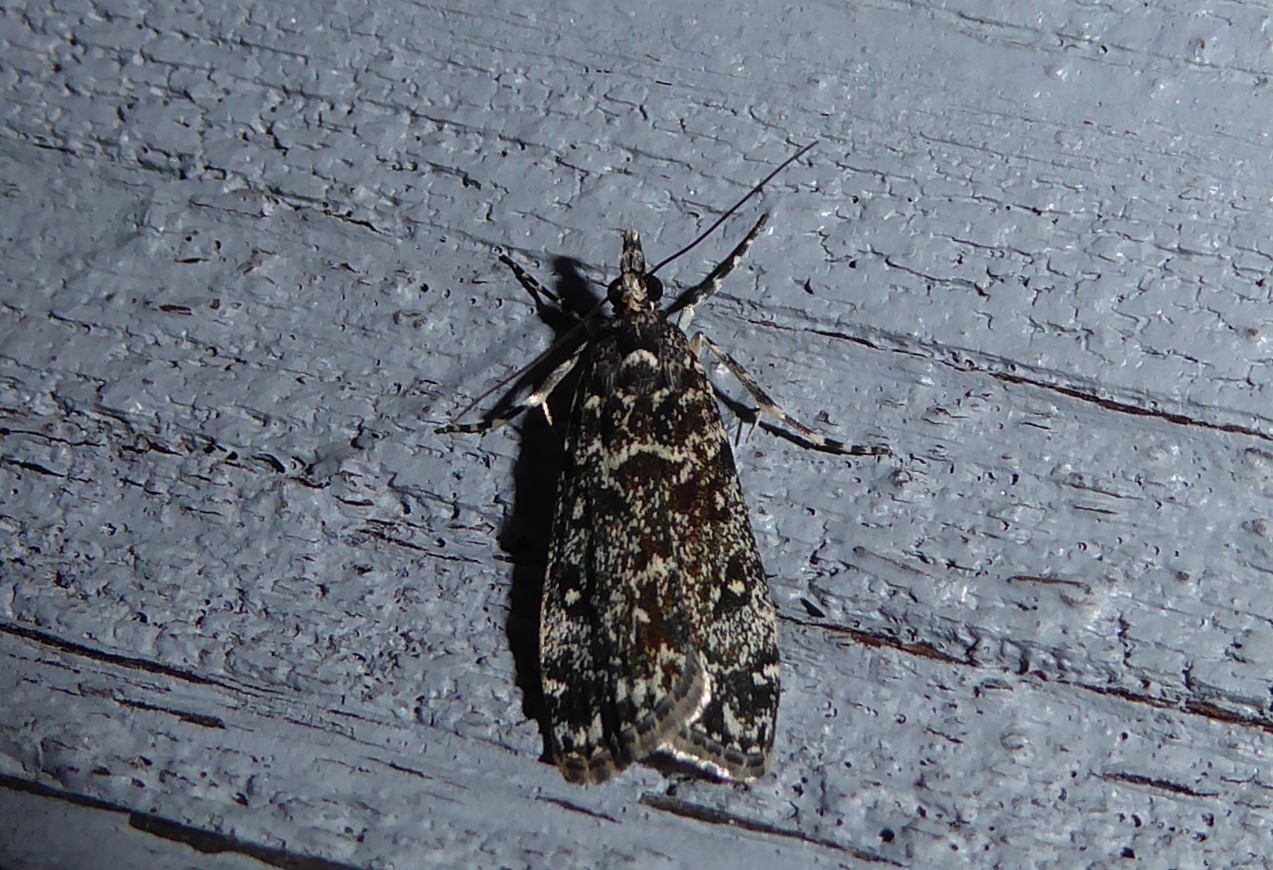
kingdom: Animalia
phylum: Arthropoda
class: Insecta
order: Lepidoptera
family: Crambidae
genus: Eudonia
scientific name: Eudonia philerga
